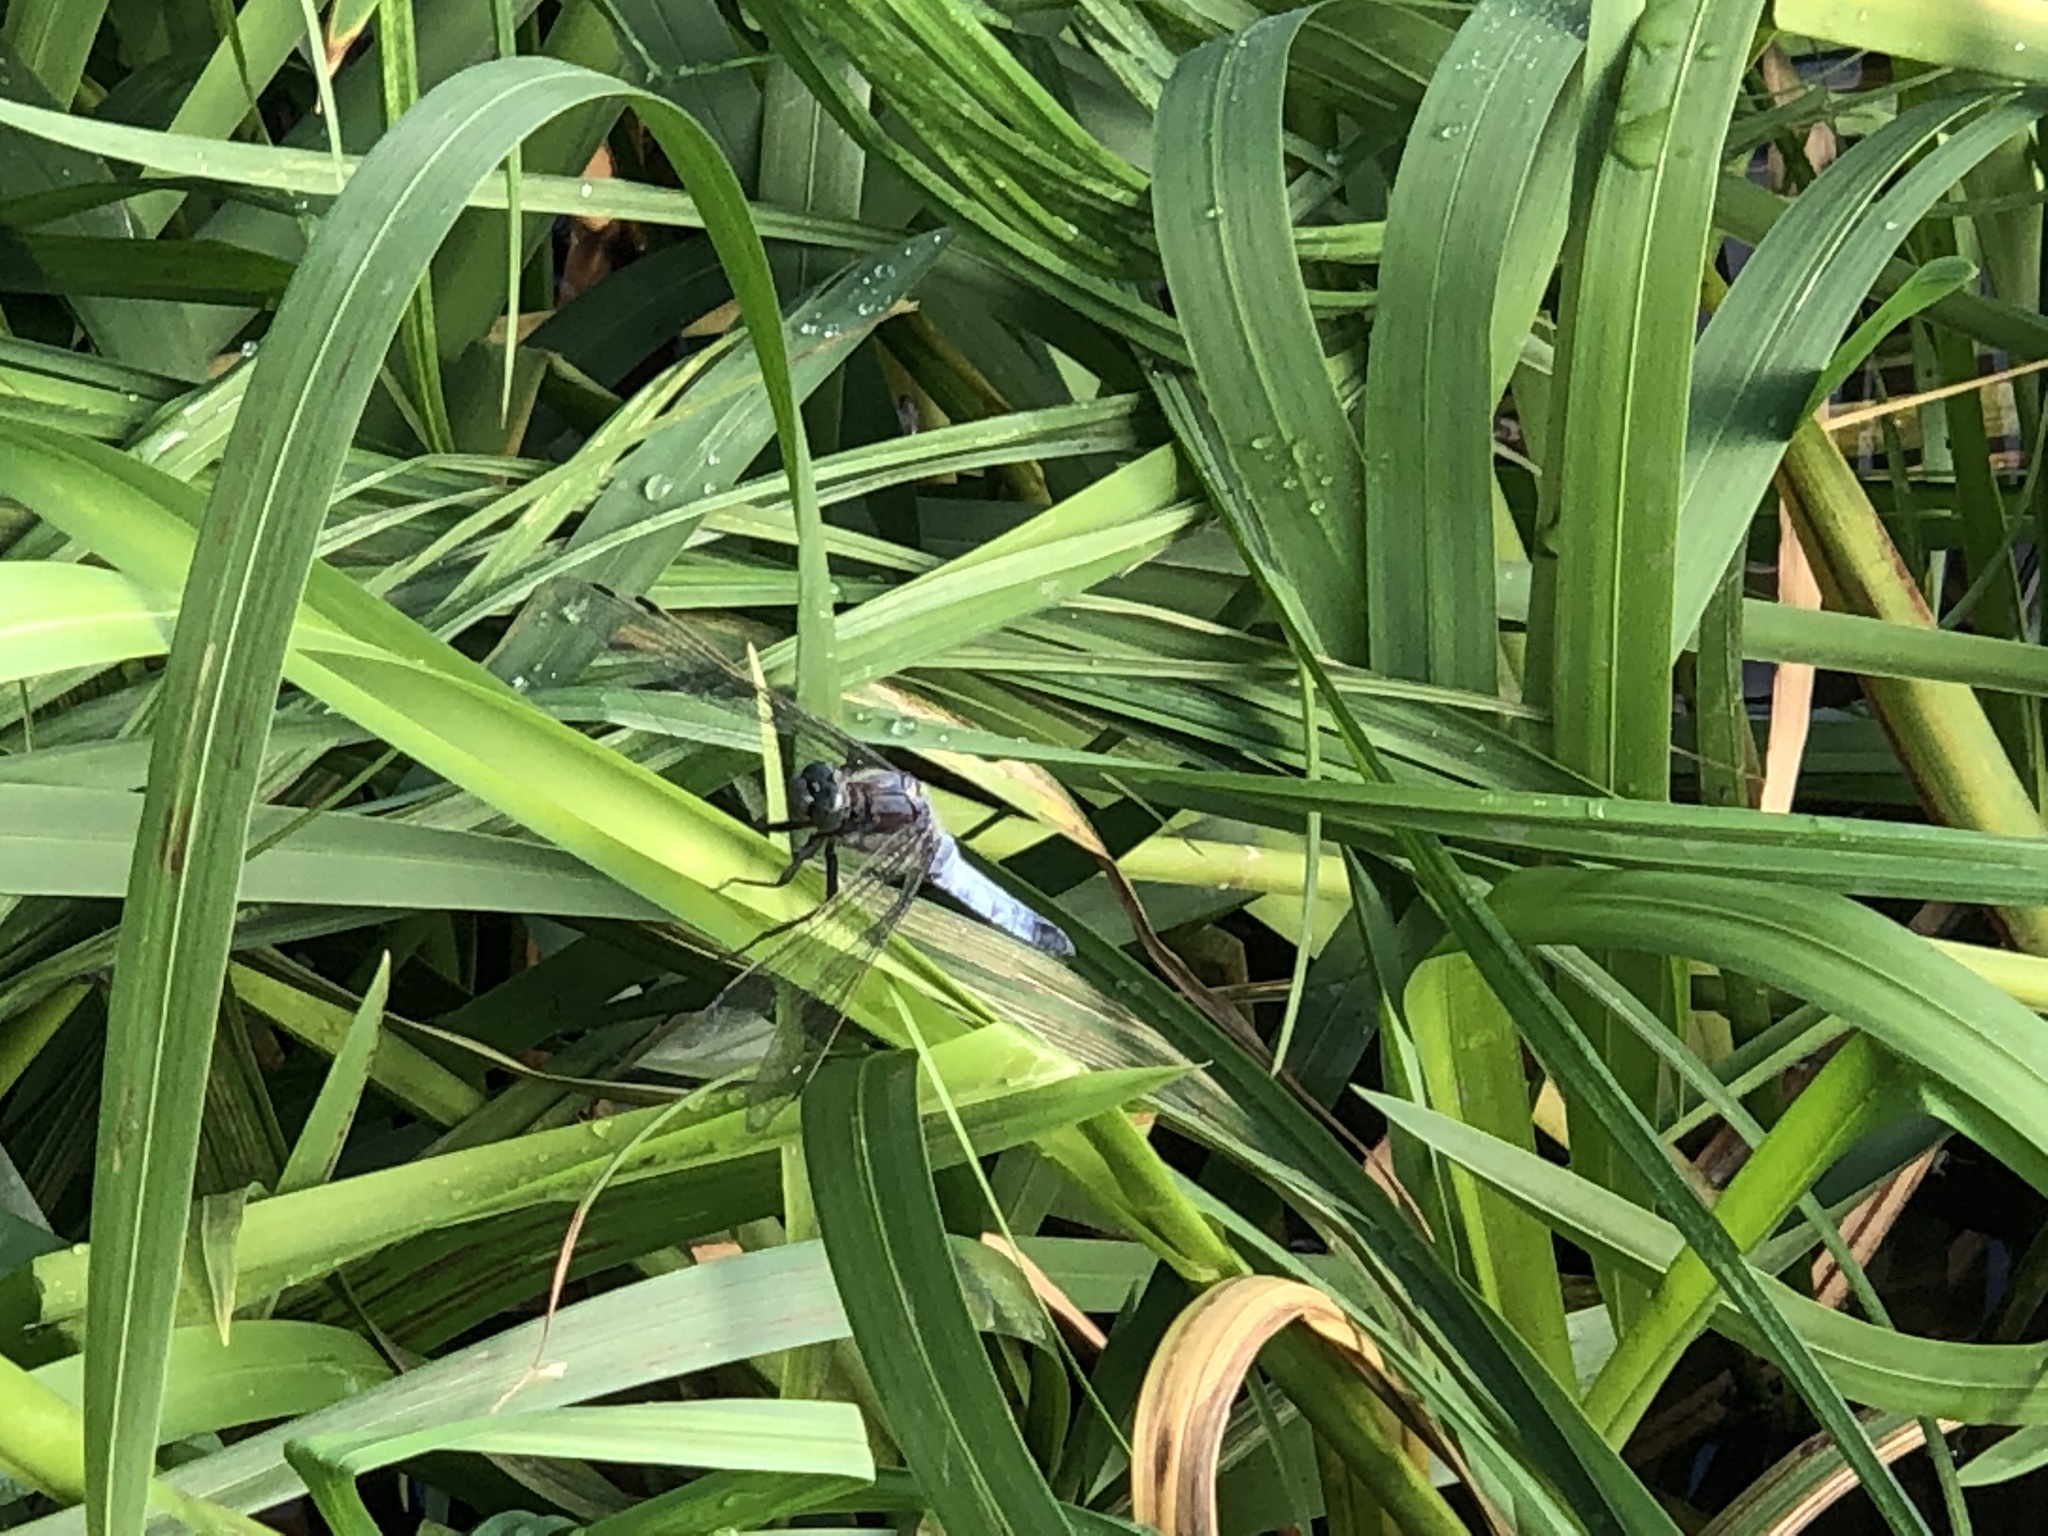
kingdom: Animalia
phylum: Arthropoda
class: Insecta
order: Odonata
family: Libellulidae
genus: Orthetrum
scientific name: Orthetrum cancellatum
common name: Black-tailed skimmer
